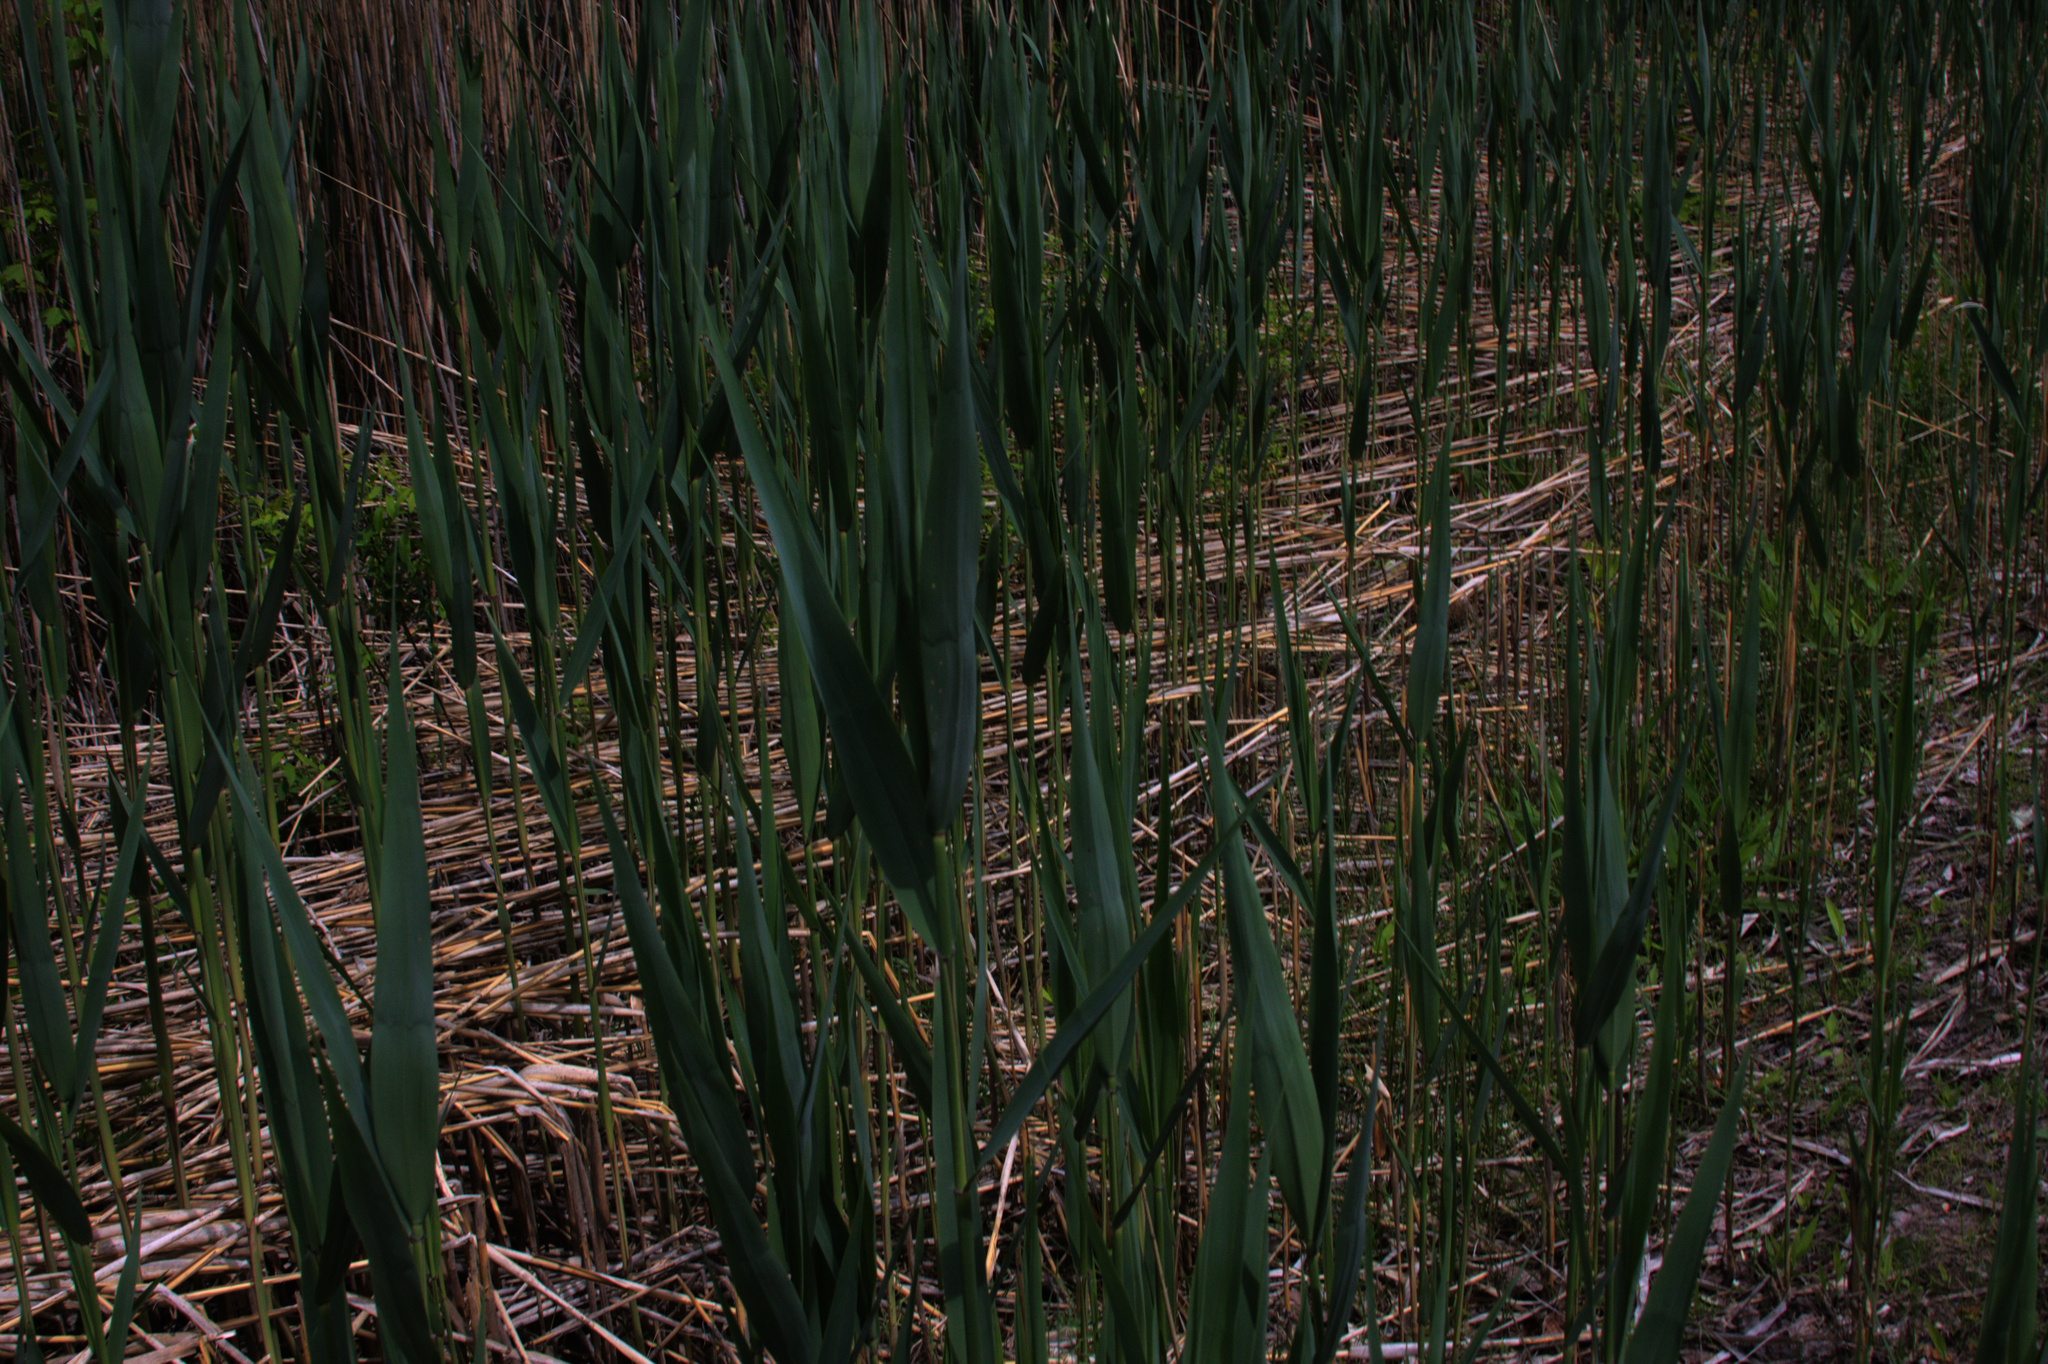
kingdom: Plantae
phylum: Tracheophyta
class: Liliopsida
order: Poales
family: Poaceae
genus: Phragmites
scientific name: Phragmites australis
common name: Common reed
